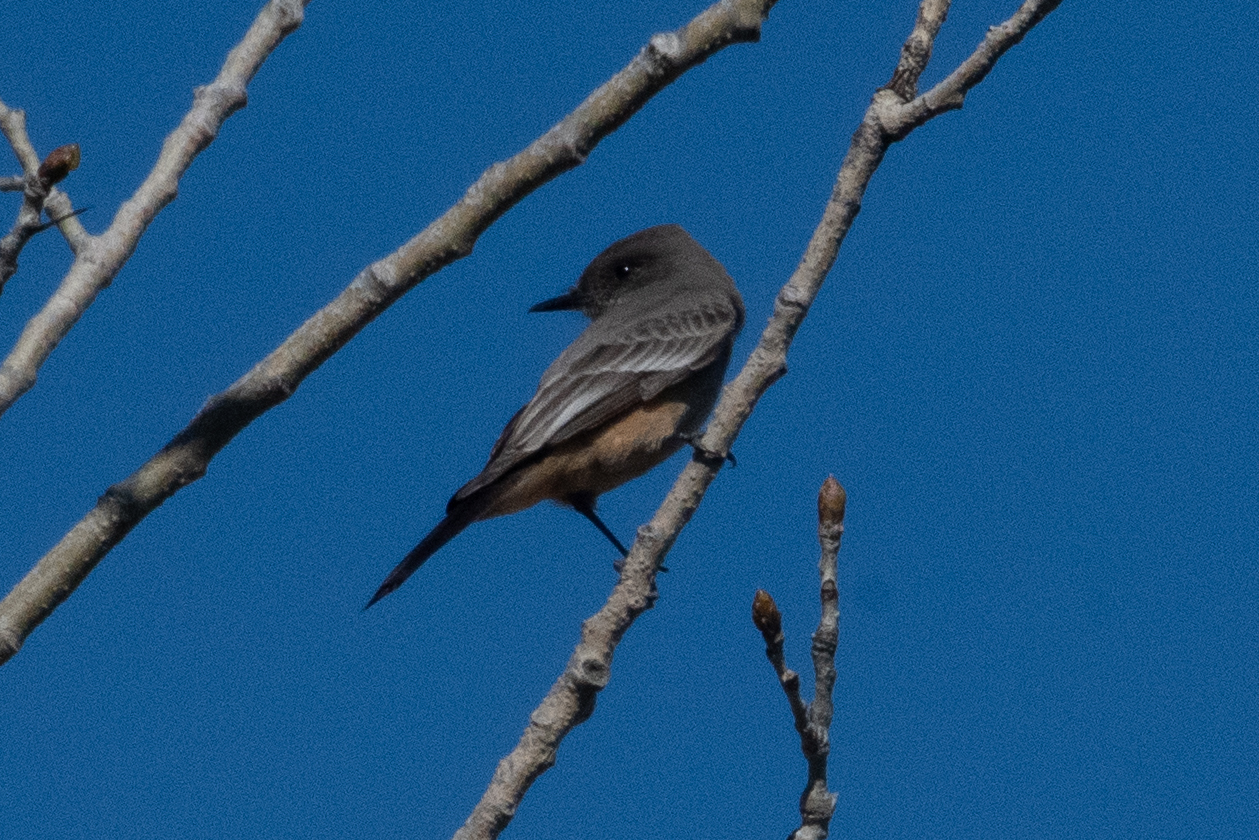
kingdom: Animalia
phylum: Chordata
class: Aves
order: Passeriformes
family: Tyrannidae
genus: Sayornis
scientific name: Sayornis saya
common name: Say's phoebe
